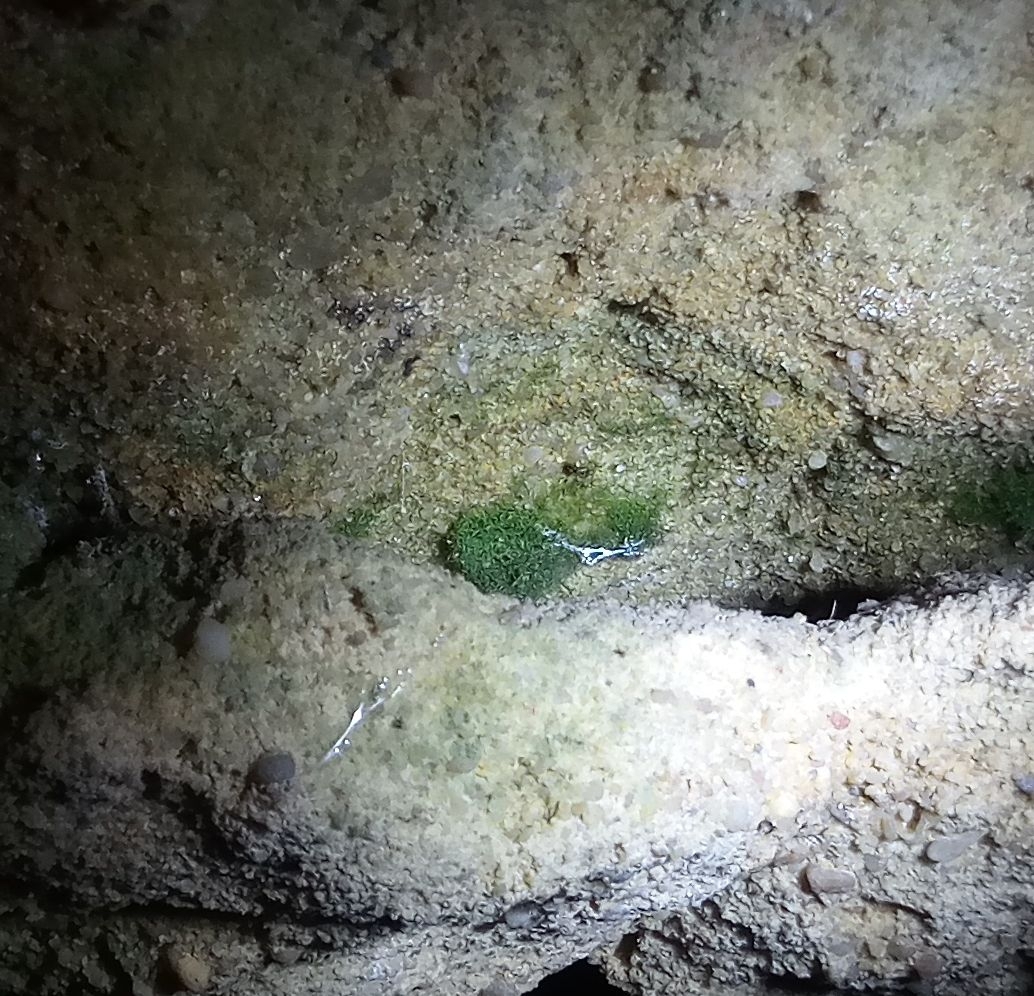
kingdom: Plantae
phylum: Tracheophyta
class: Polypodiopsida
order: Hymenophyllales
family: Hymenophyllaceae
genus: Vandenboschia
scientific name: Vandenboschia speciosa
